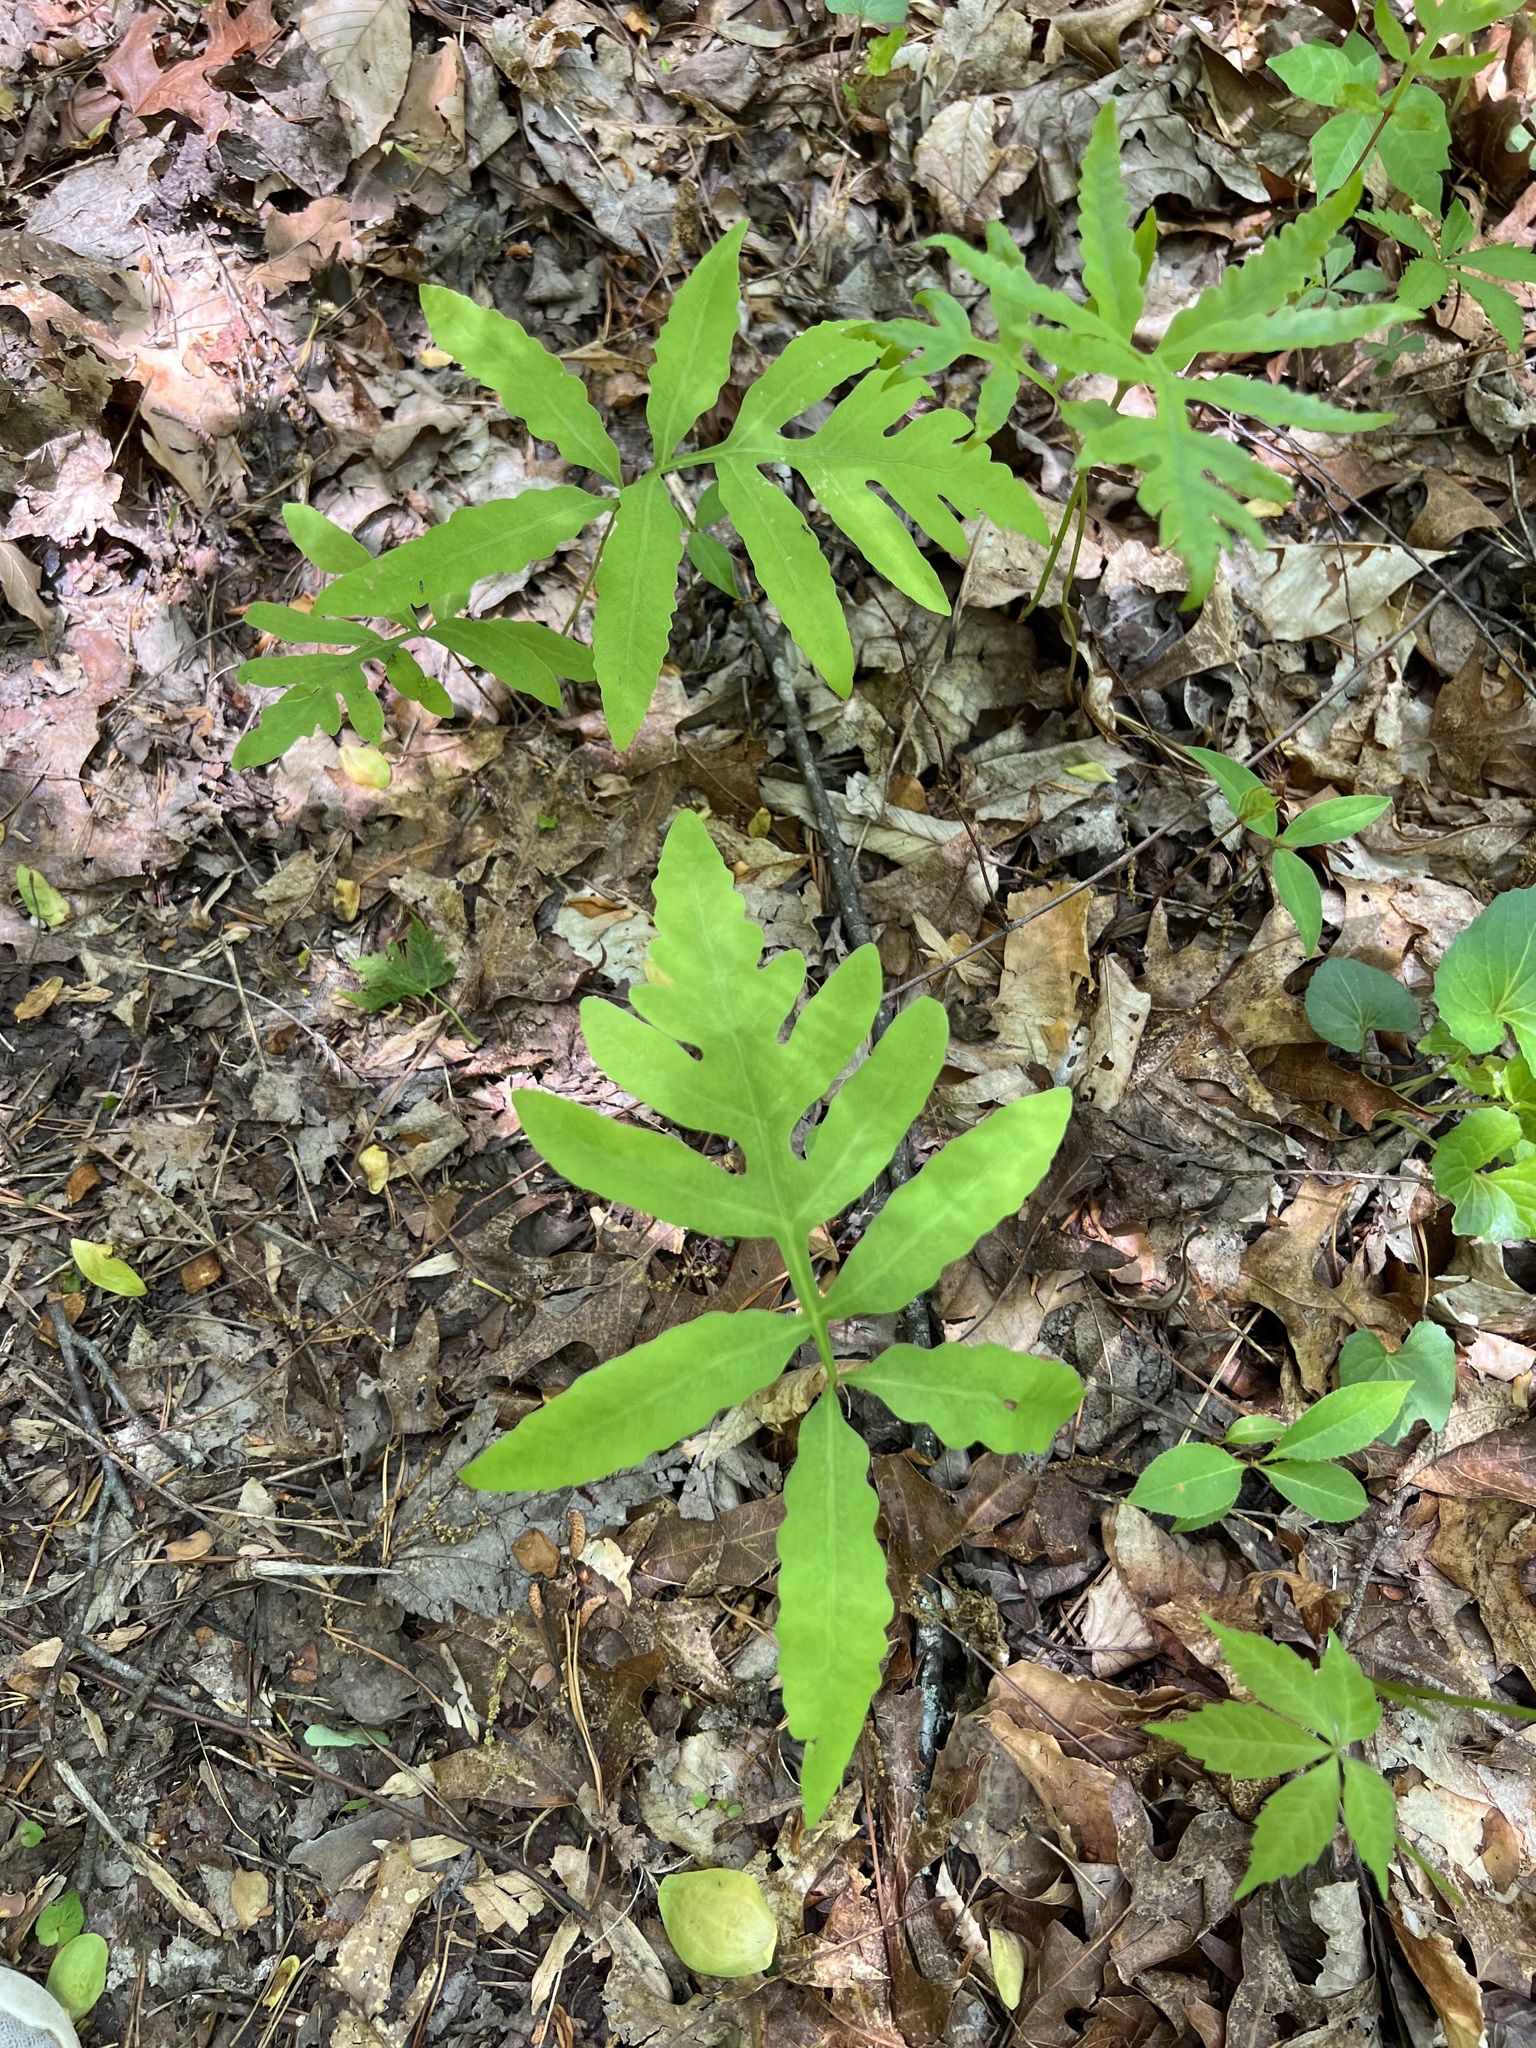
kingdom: Plantae
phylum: Tracheophyta
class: Polypodiopsida
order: Polypodiales
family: Onocleaceae
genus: Onoclea
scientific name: Onoclea sensibilis
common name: Sensitive fern
